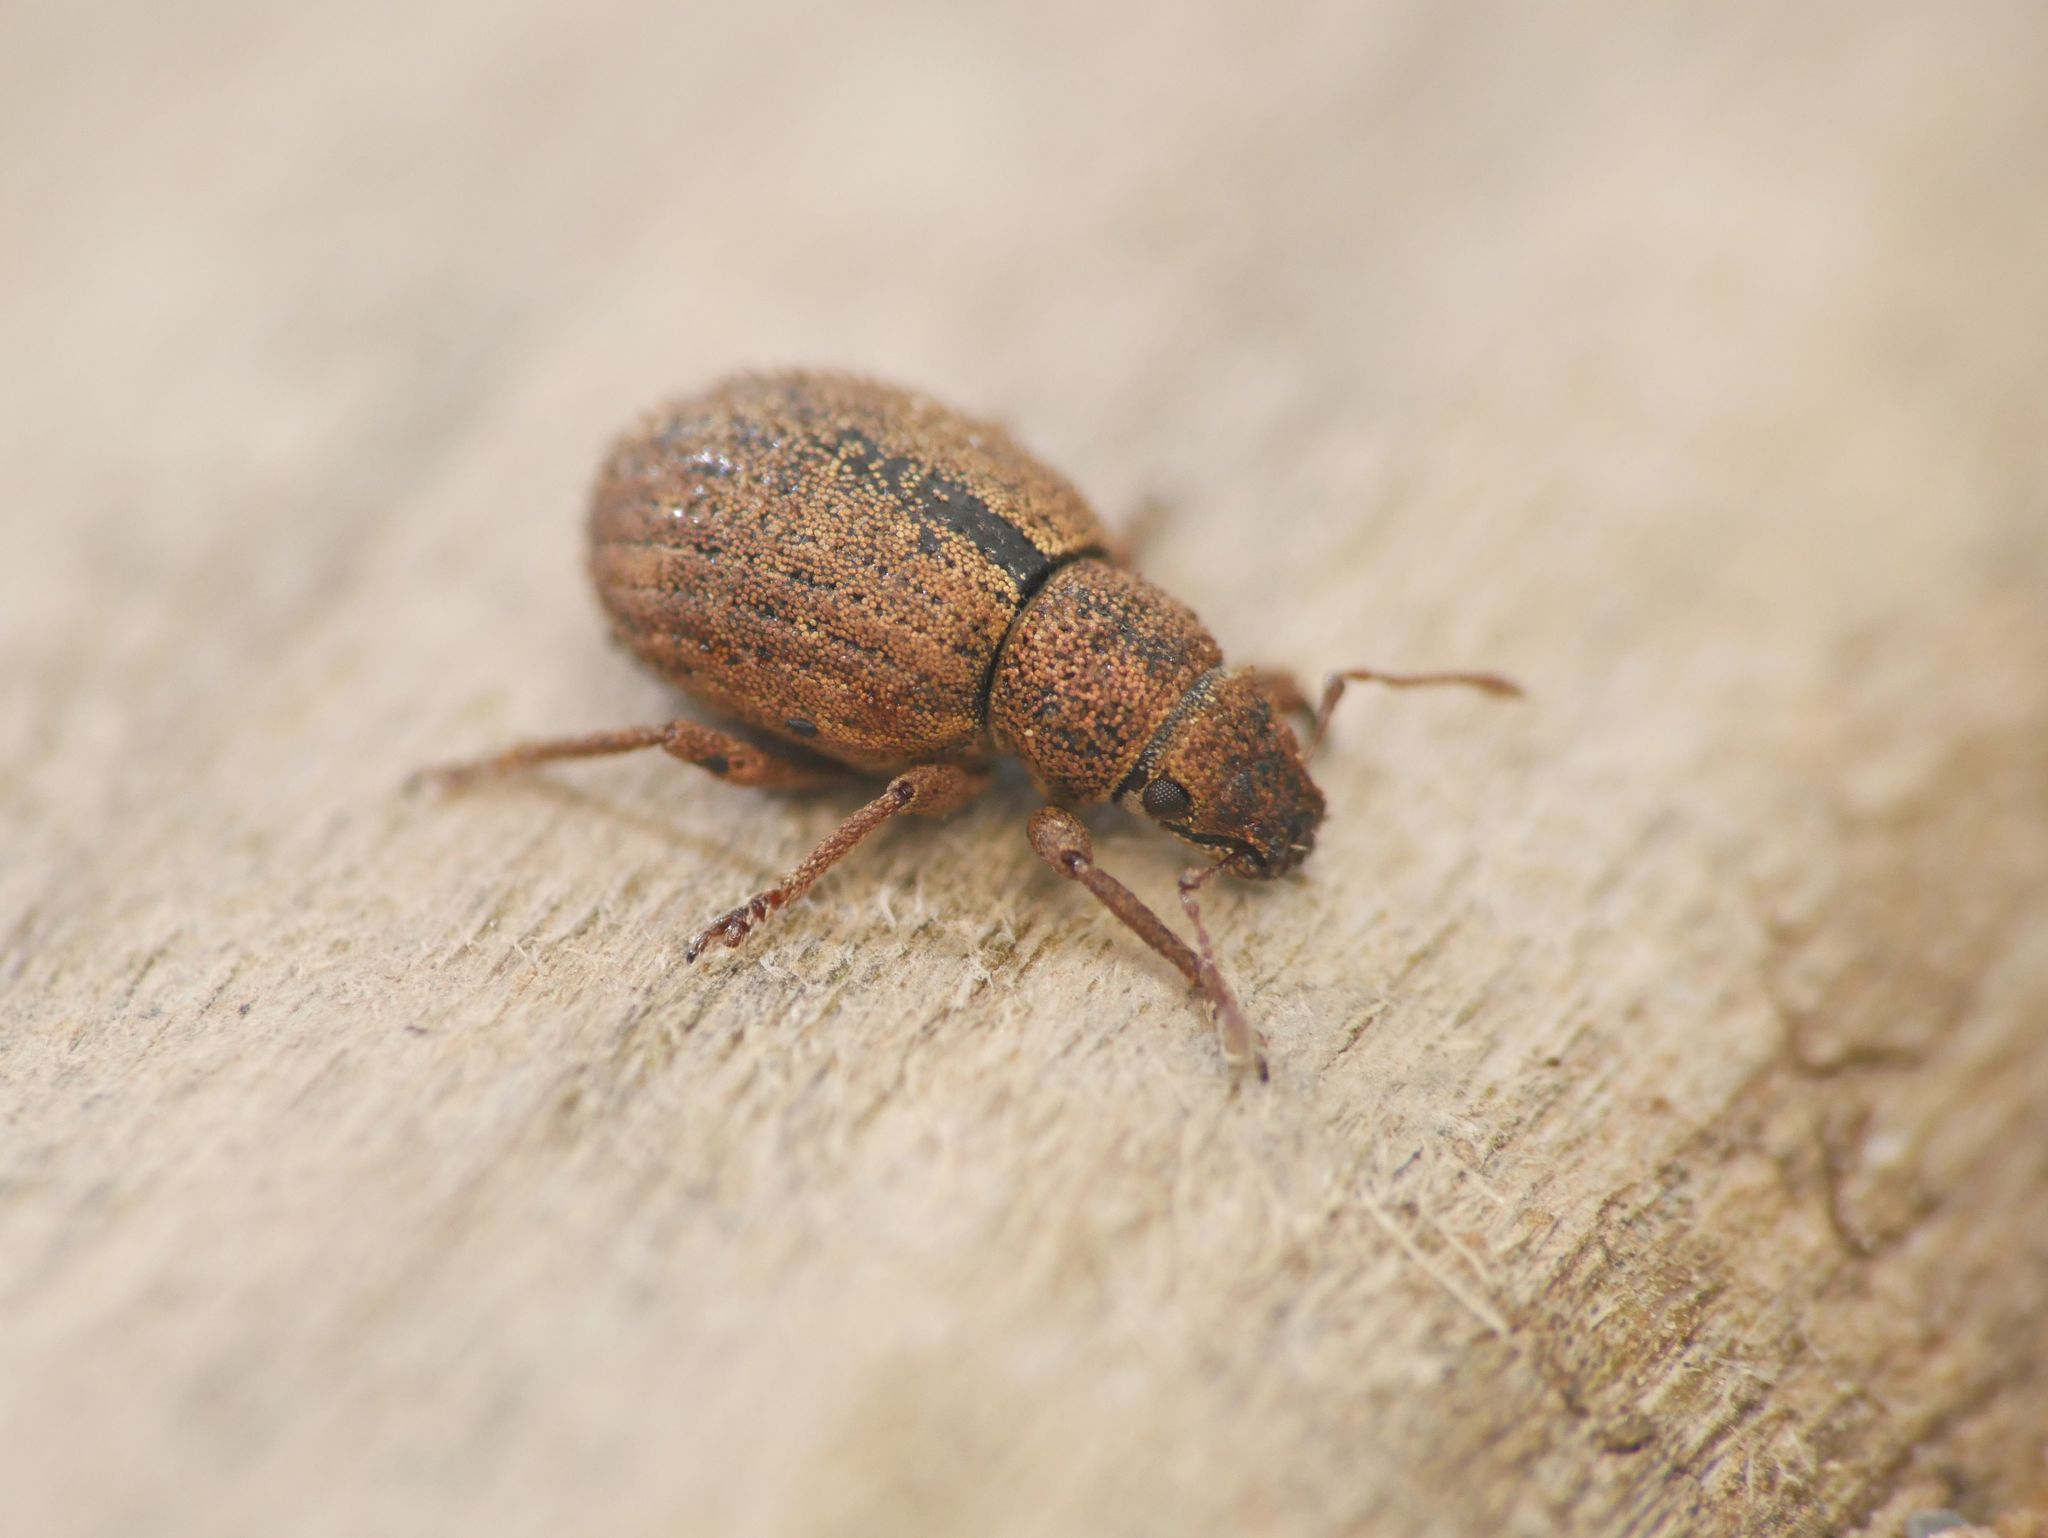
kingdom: Animalia
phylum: Arthropoda
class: Insecta
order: Coleoptera
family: Curculionidae
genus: Strophosoma
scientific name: Strophosoma melanogrammum
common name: Weevil
